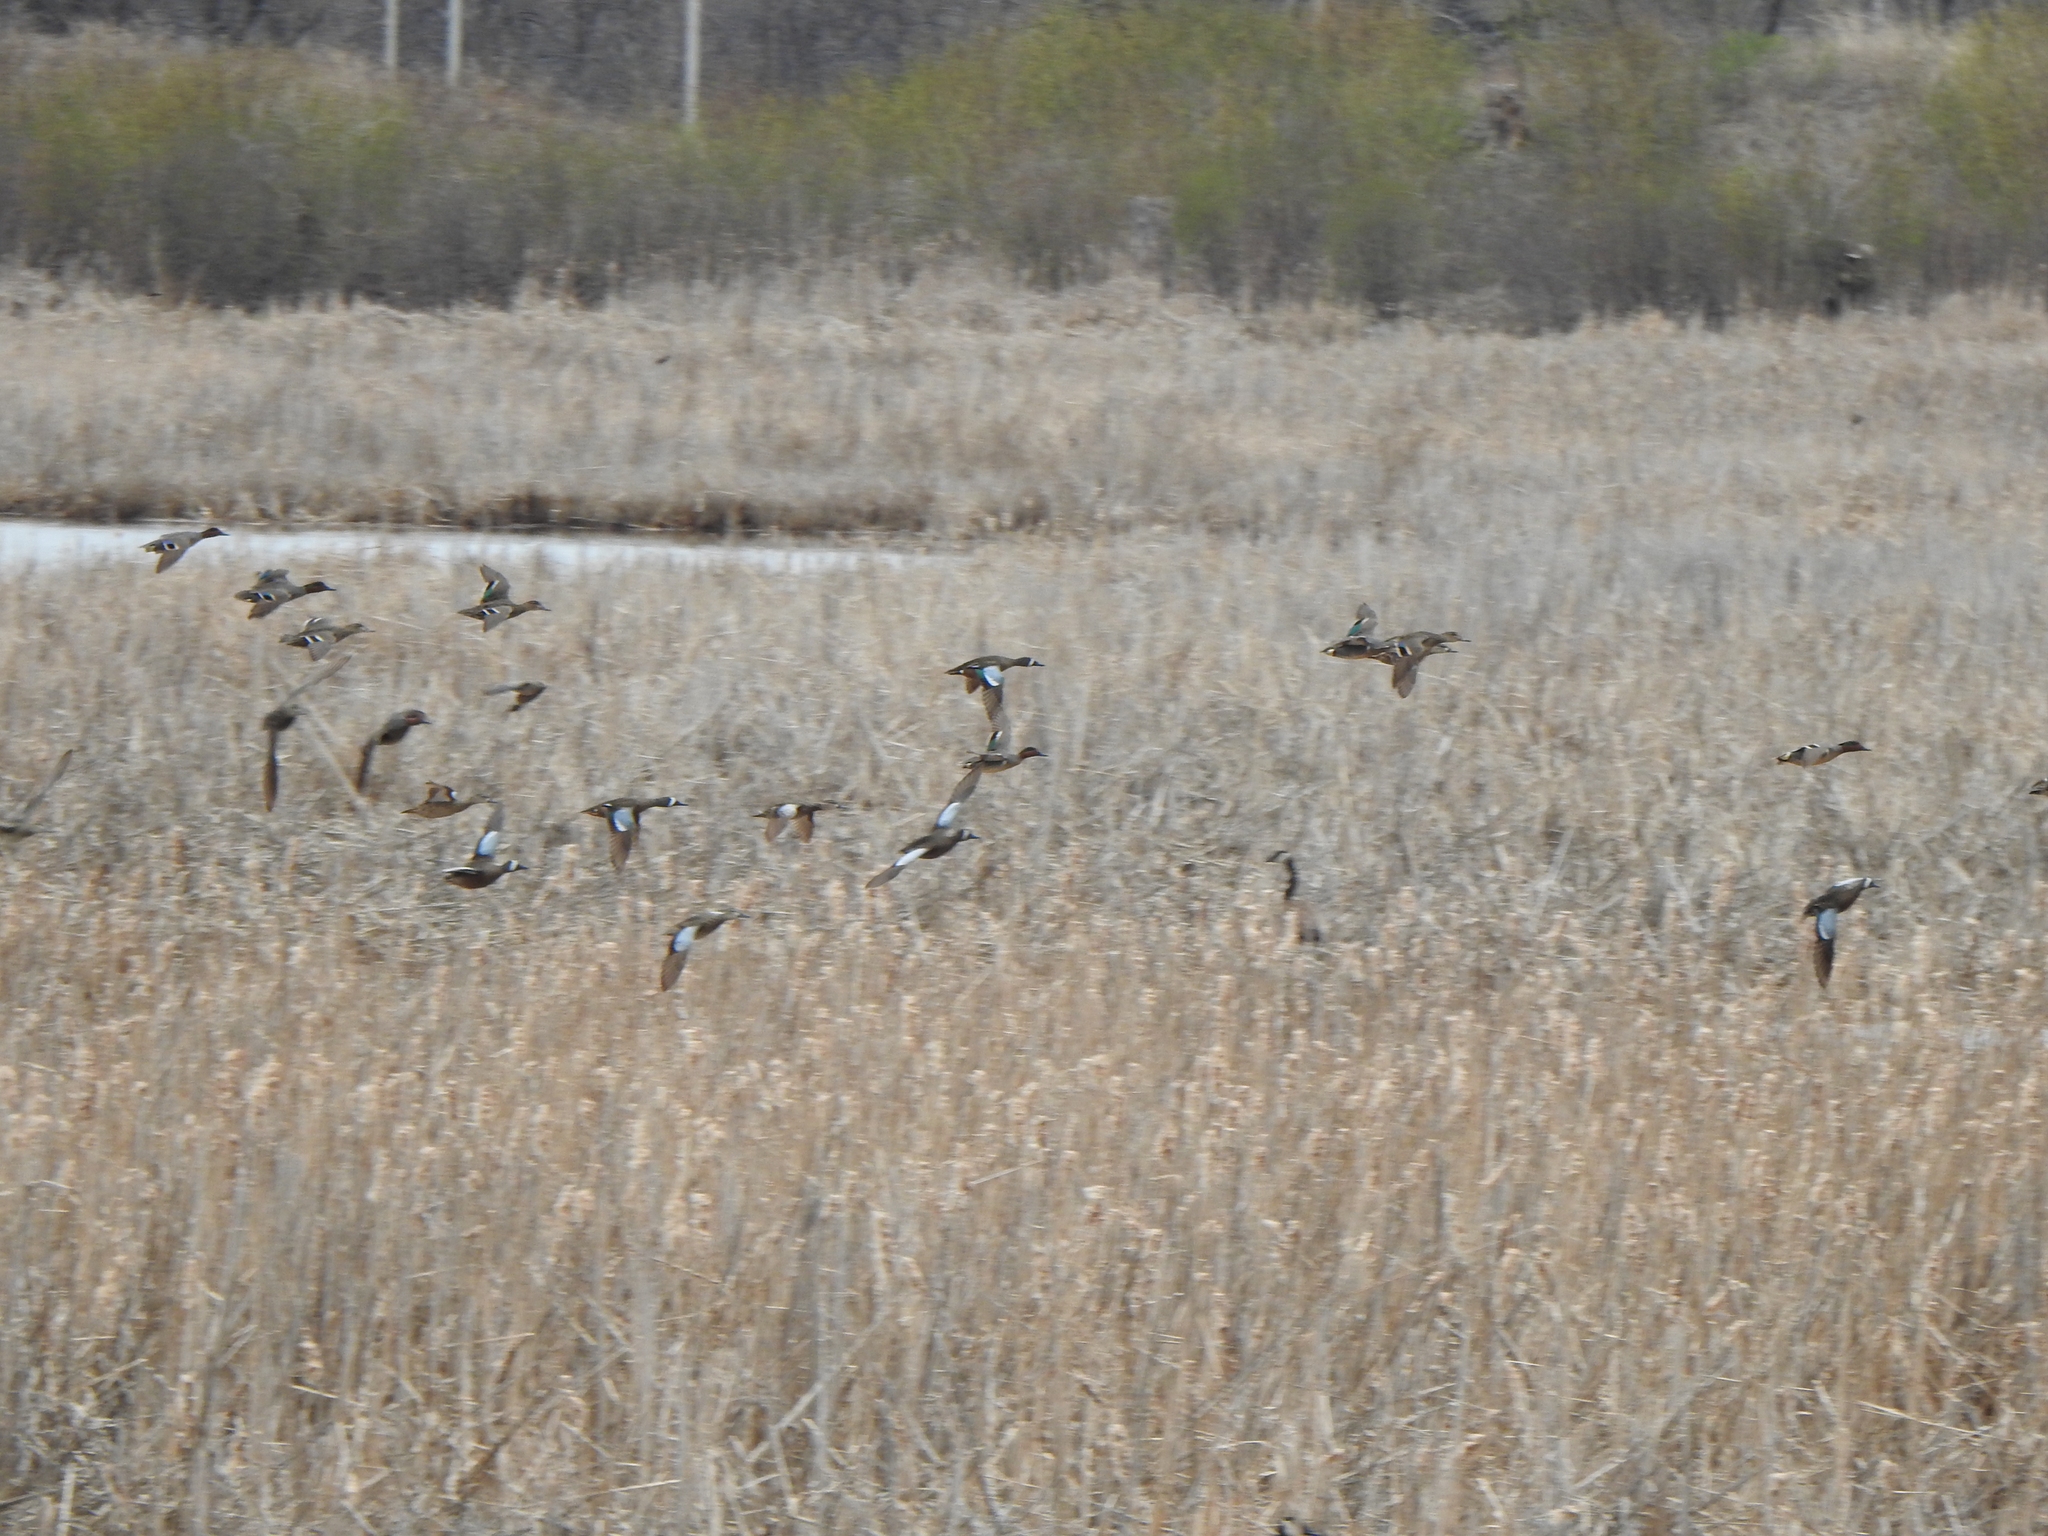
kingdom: Animalia
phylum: Chordata
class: Aves
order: Anseriformes
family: Anatidae
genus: Spatula
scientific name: Spatula discors
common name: Blue-winged teal
